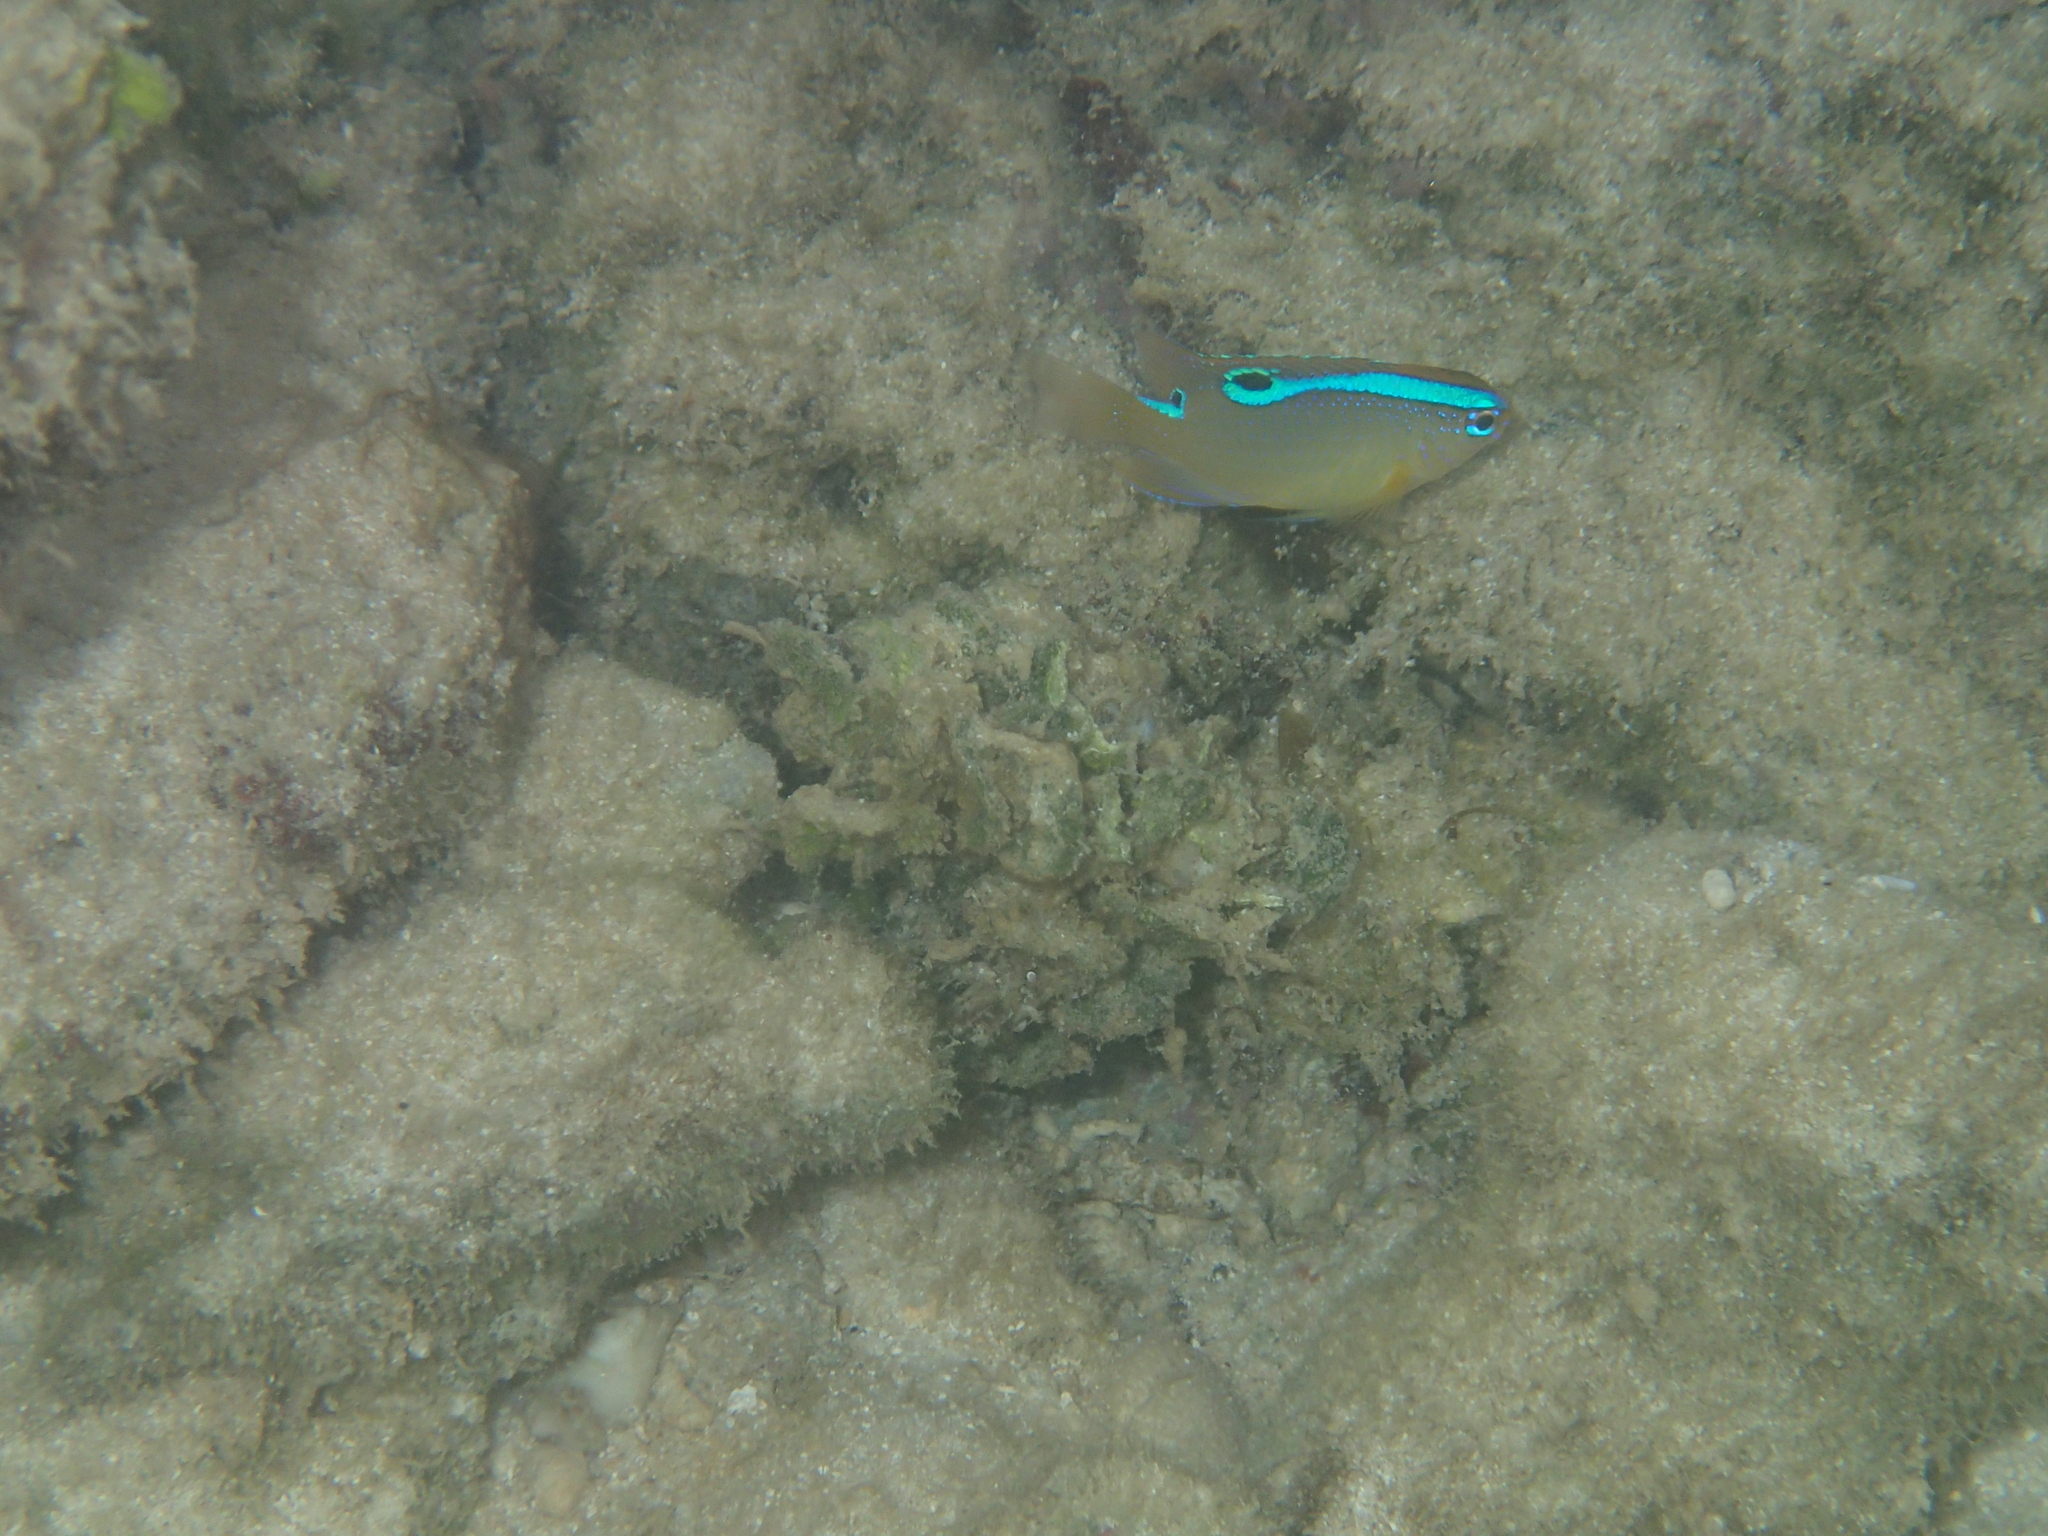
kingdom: Animalia
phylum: Chordata
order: Perciformes
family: Pomacentridae
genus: Chrysiptera
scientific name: Chrysiptera unimaculata
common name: Onespot demoiselle
